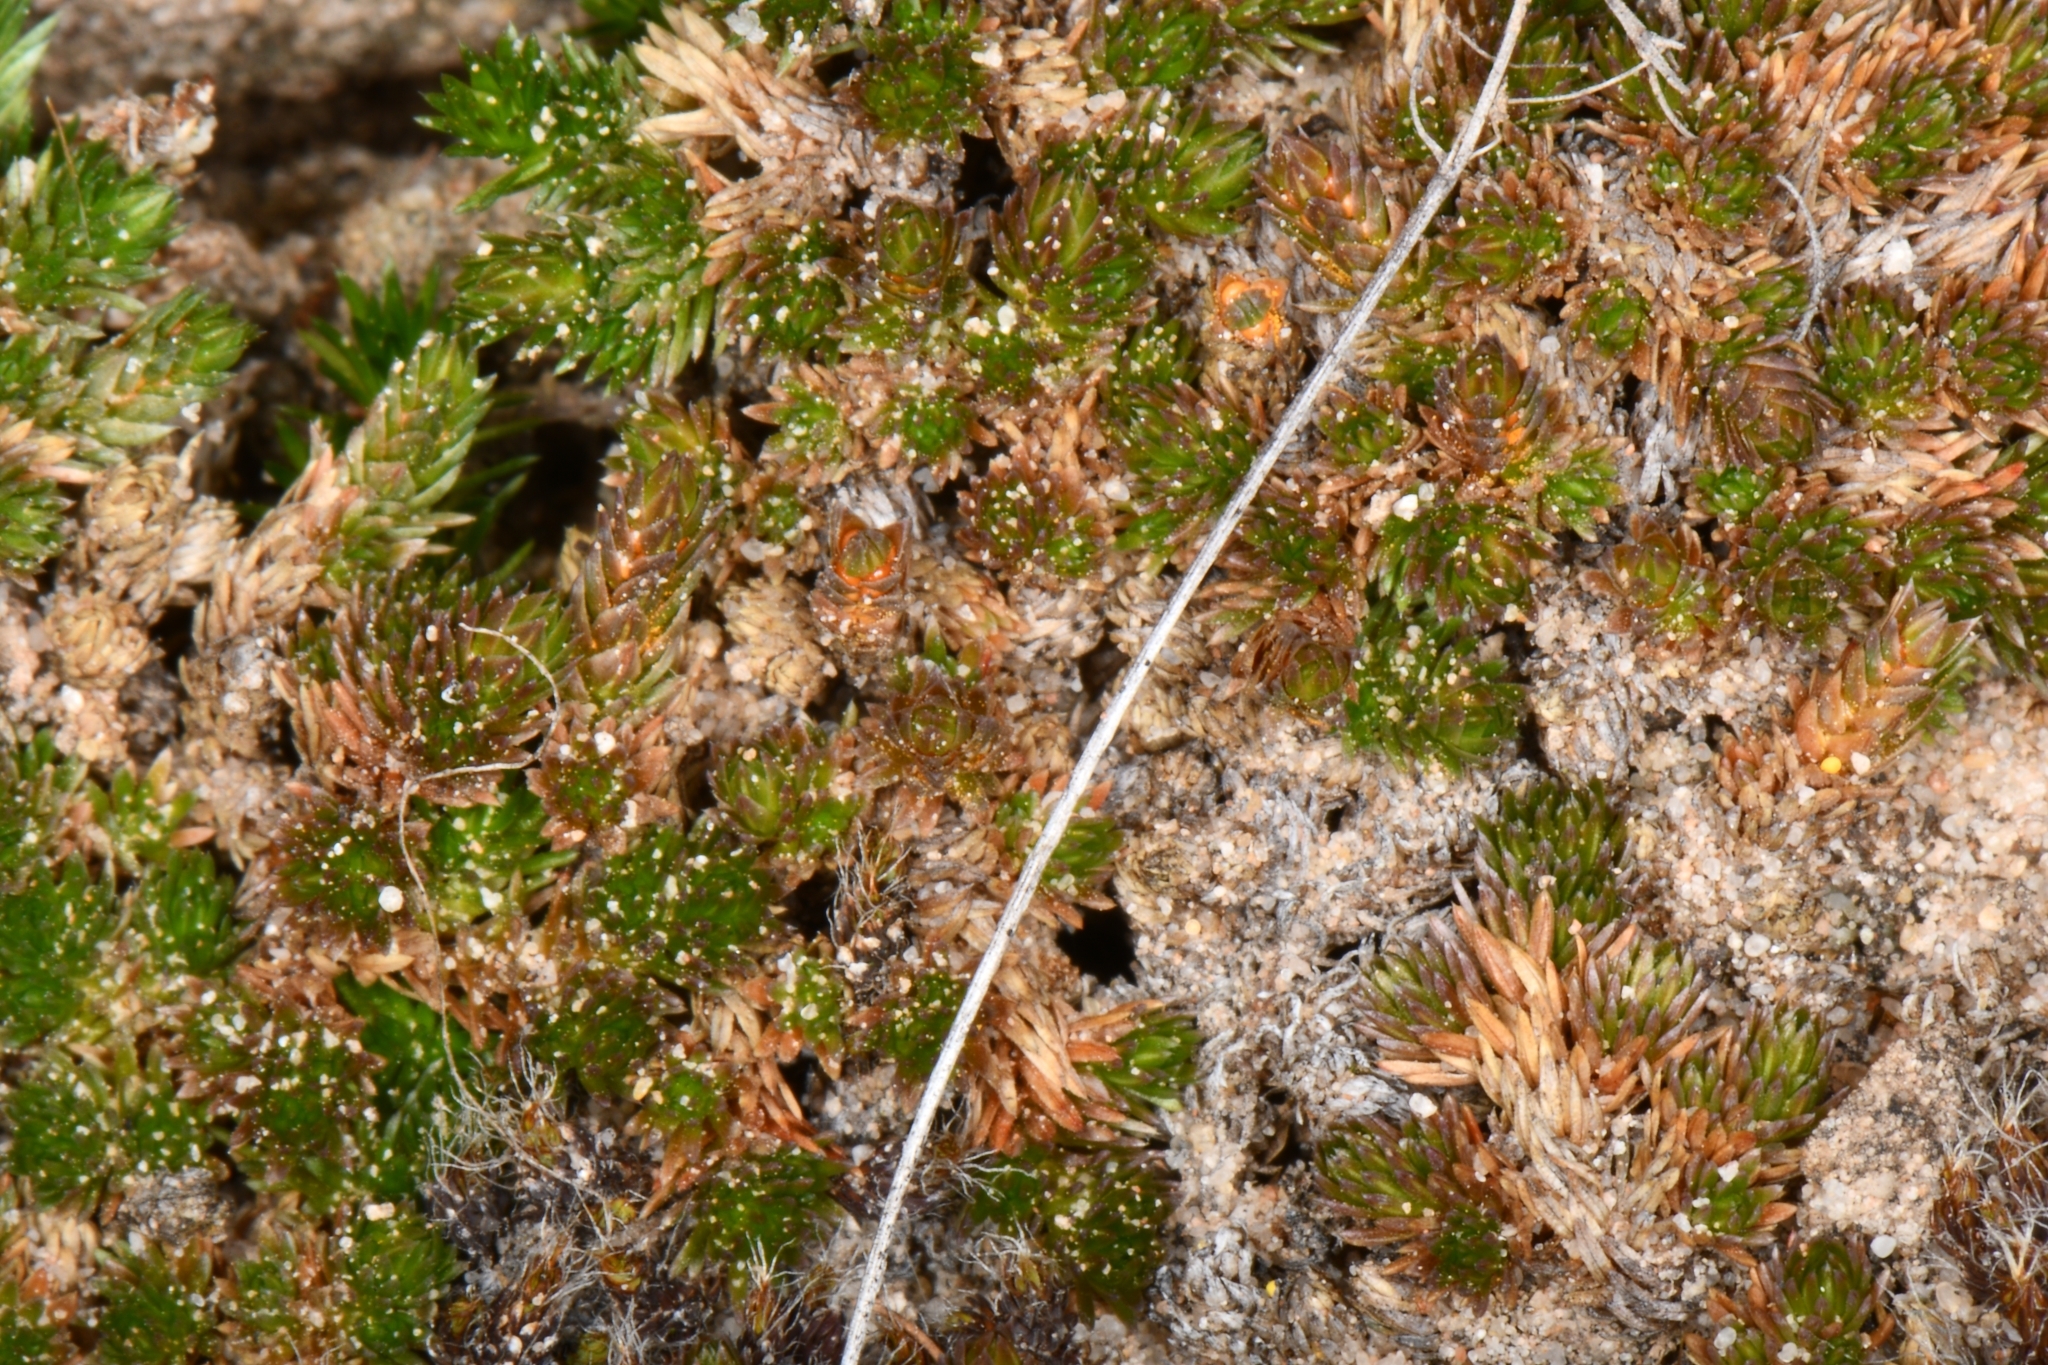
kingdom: Plantae
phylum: Tracheophyta
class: Lycopodiopsida
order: Selaginellales
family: Selaginellaceae
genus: Selaginella
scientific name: Selaginella utahensis
